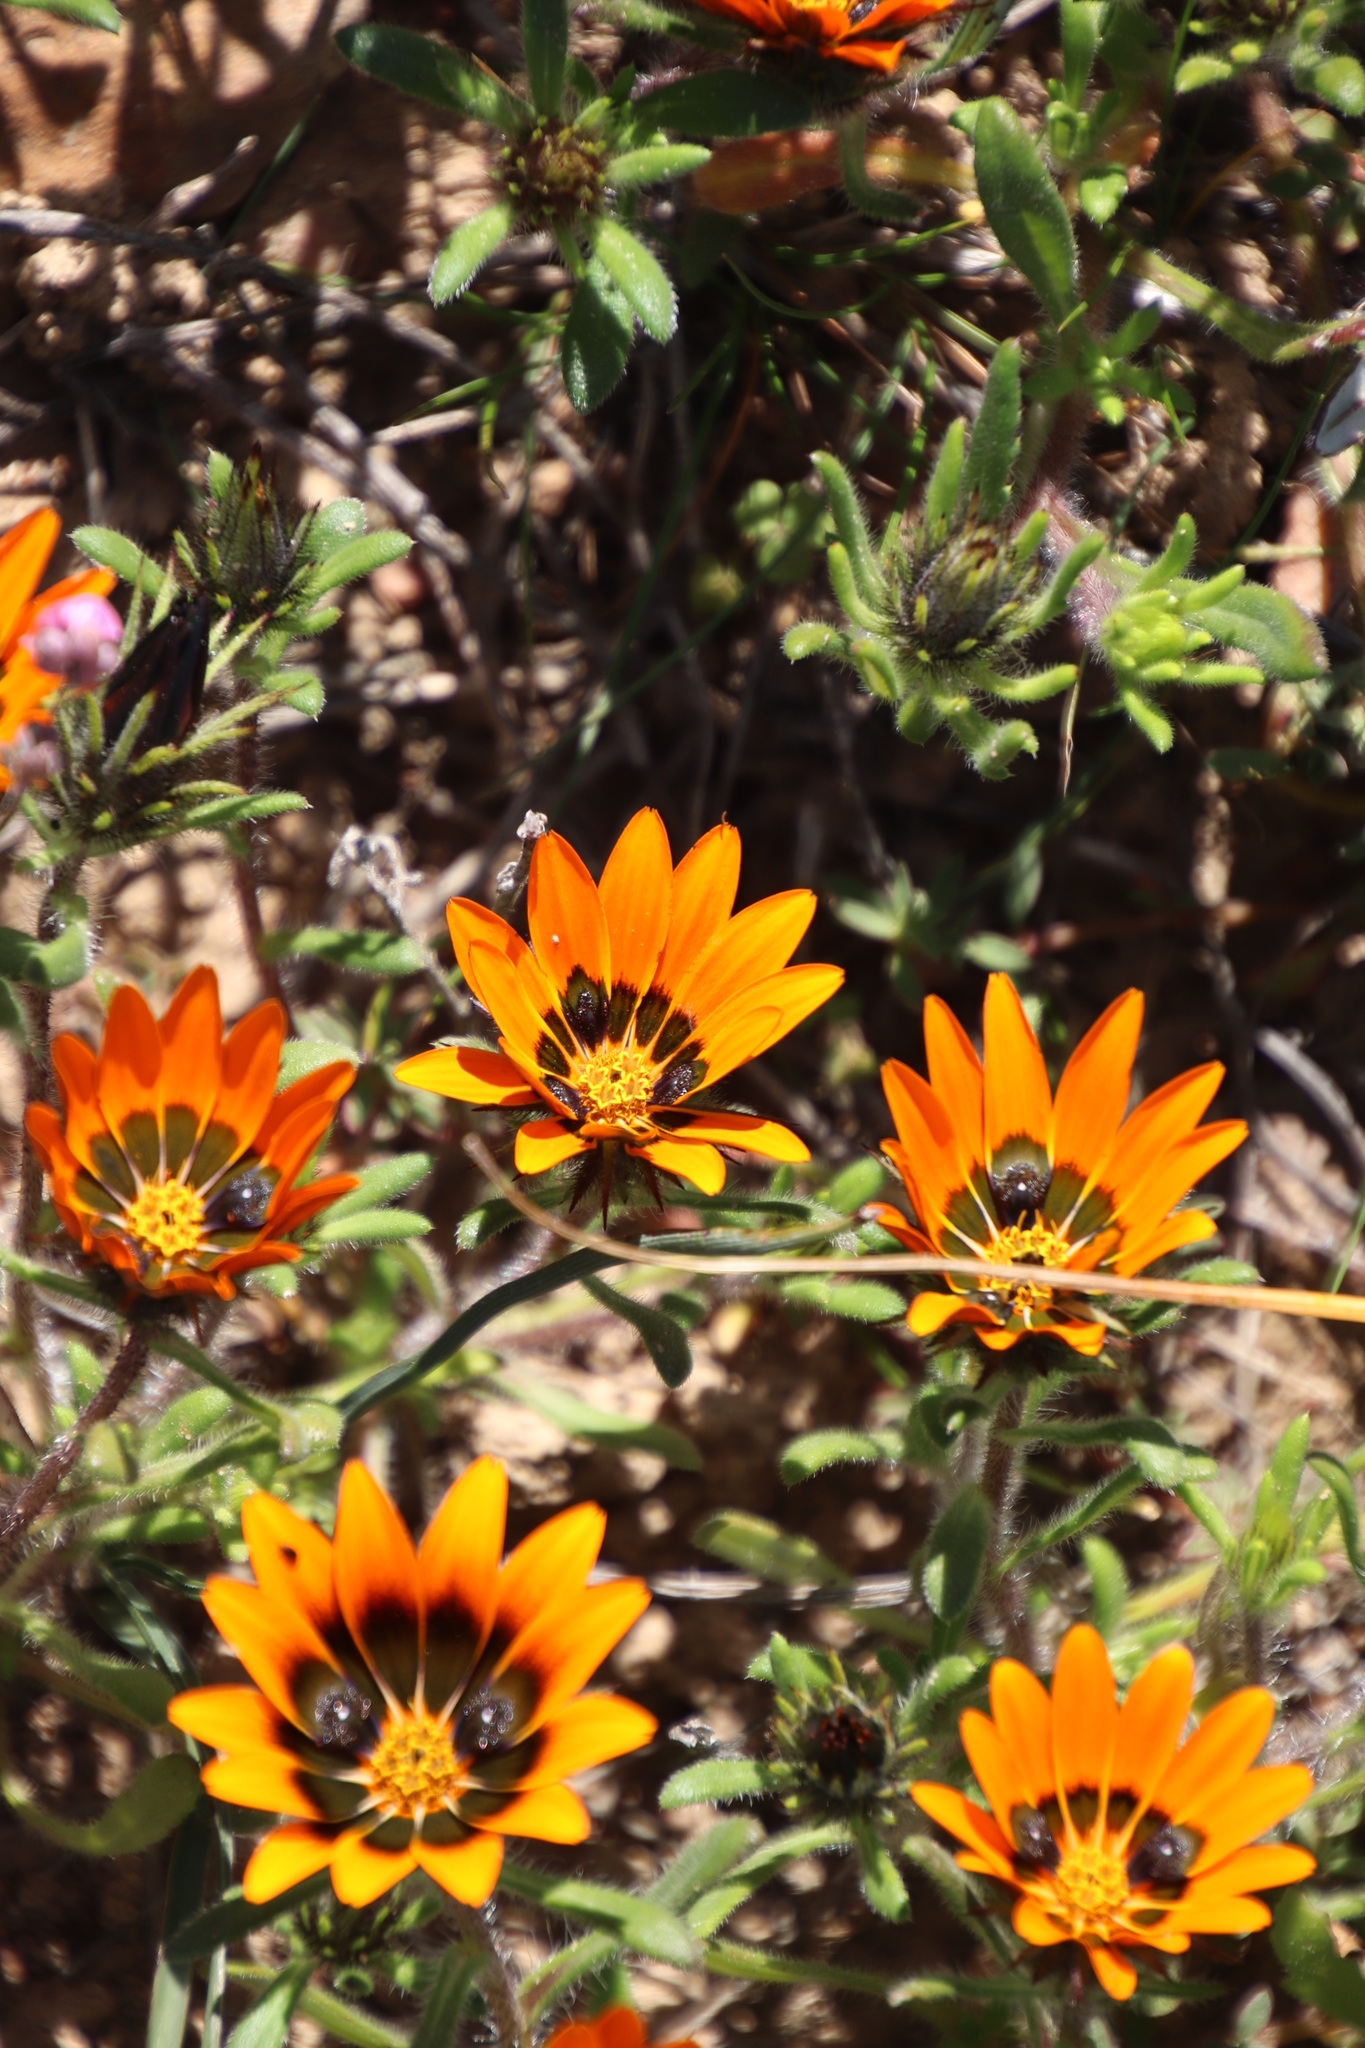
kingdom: Plantae
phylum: Tracheophyta
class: Magnoliopsida
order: Asterales
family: Asteraceae
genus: Gorteria
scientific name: Gorteria diffusa
